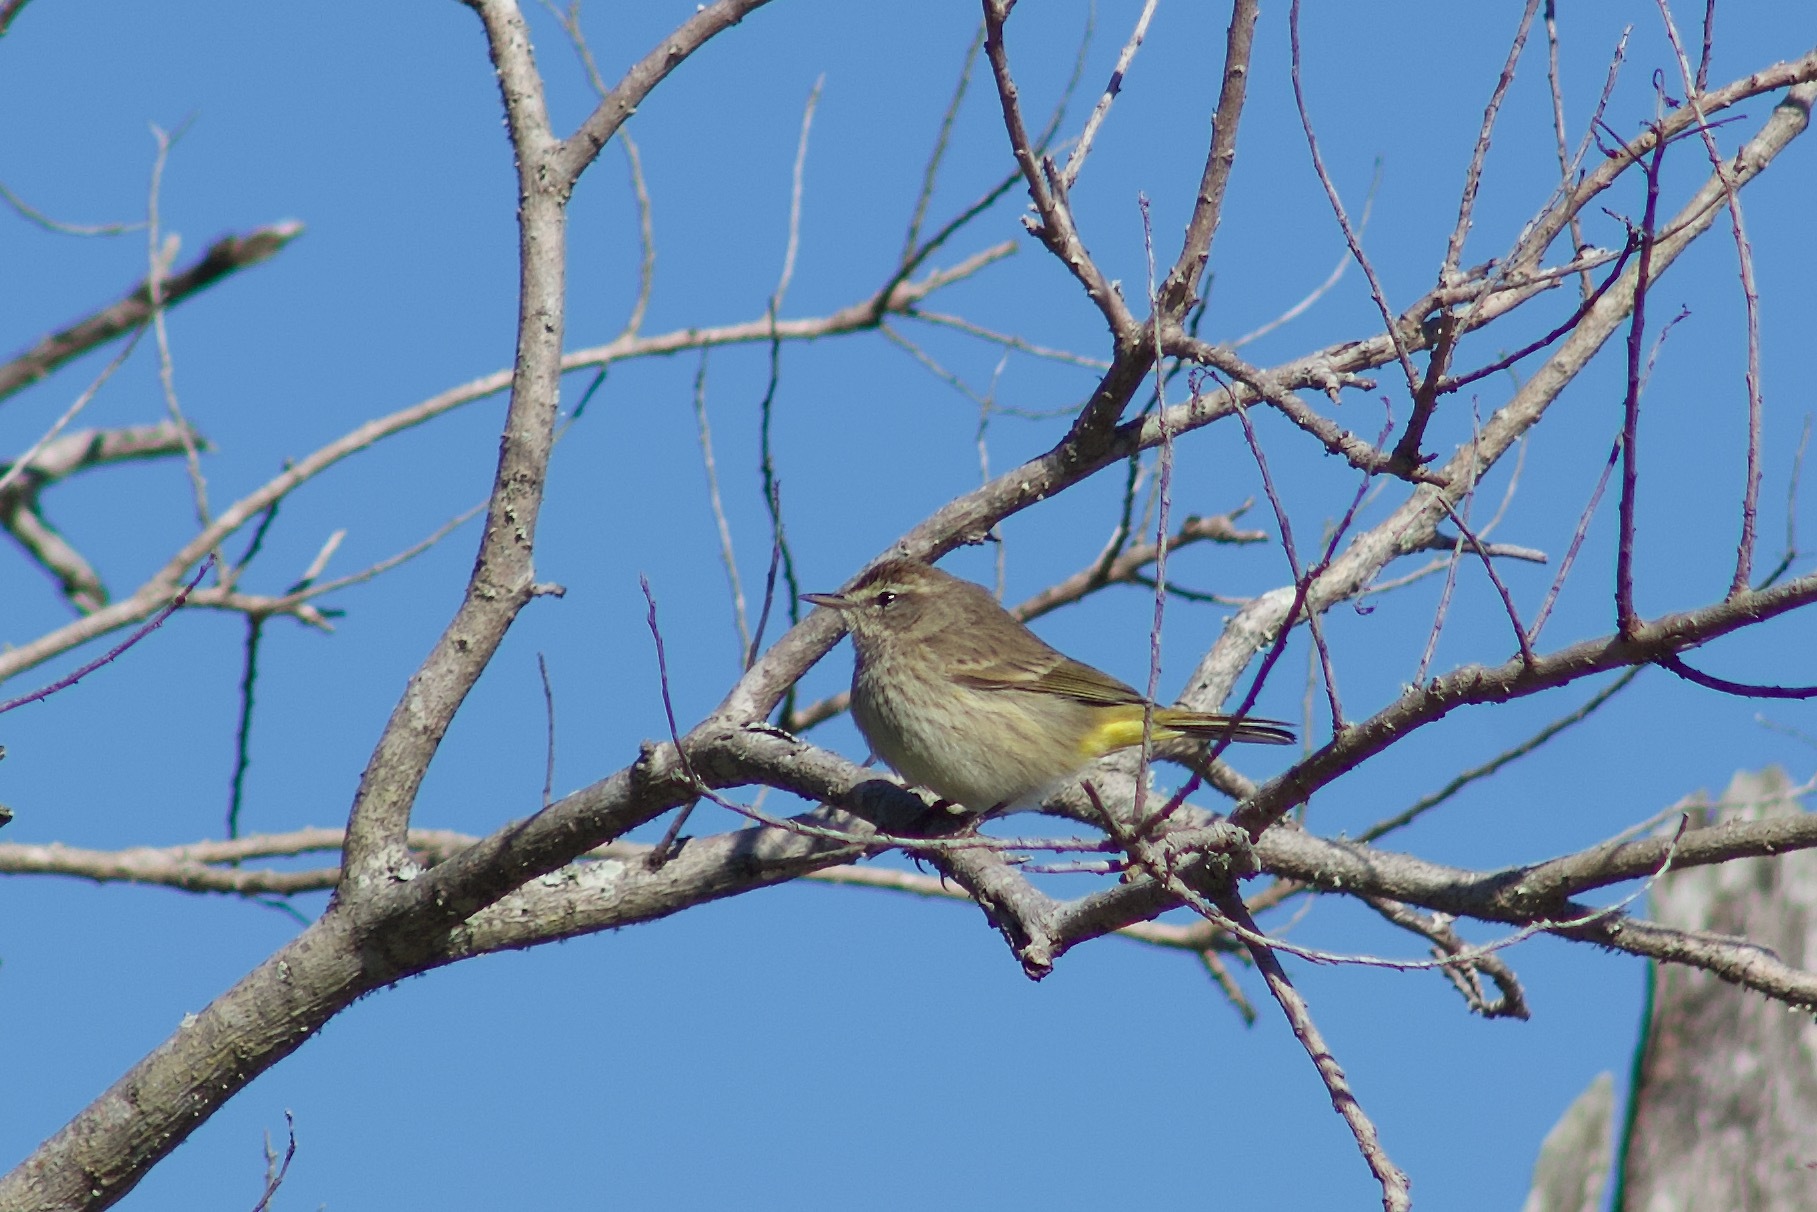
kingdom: Animalia
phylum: Chordata
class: Aves
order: Passeriformes
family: Parulidae
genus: Setophaga
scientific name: Setophaga palmarum
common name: Palm warbler
